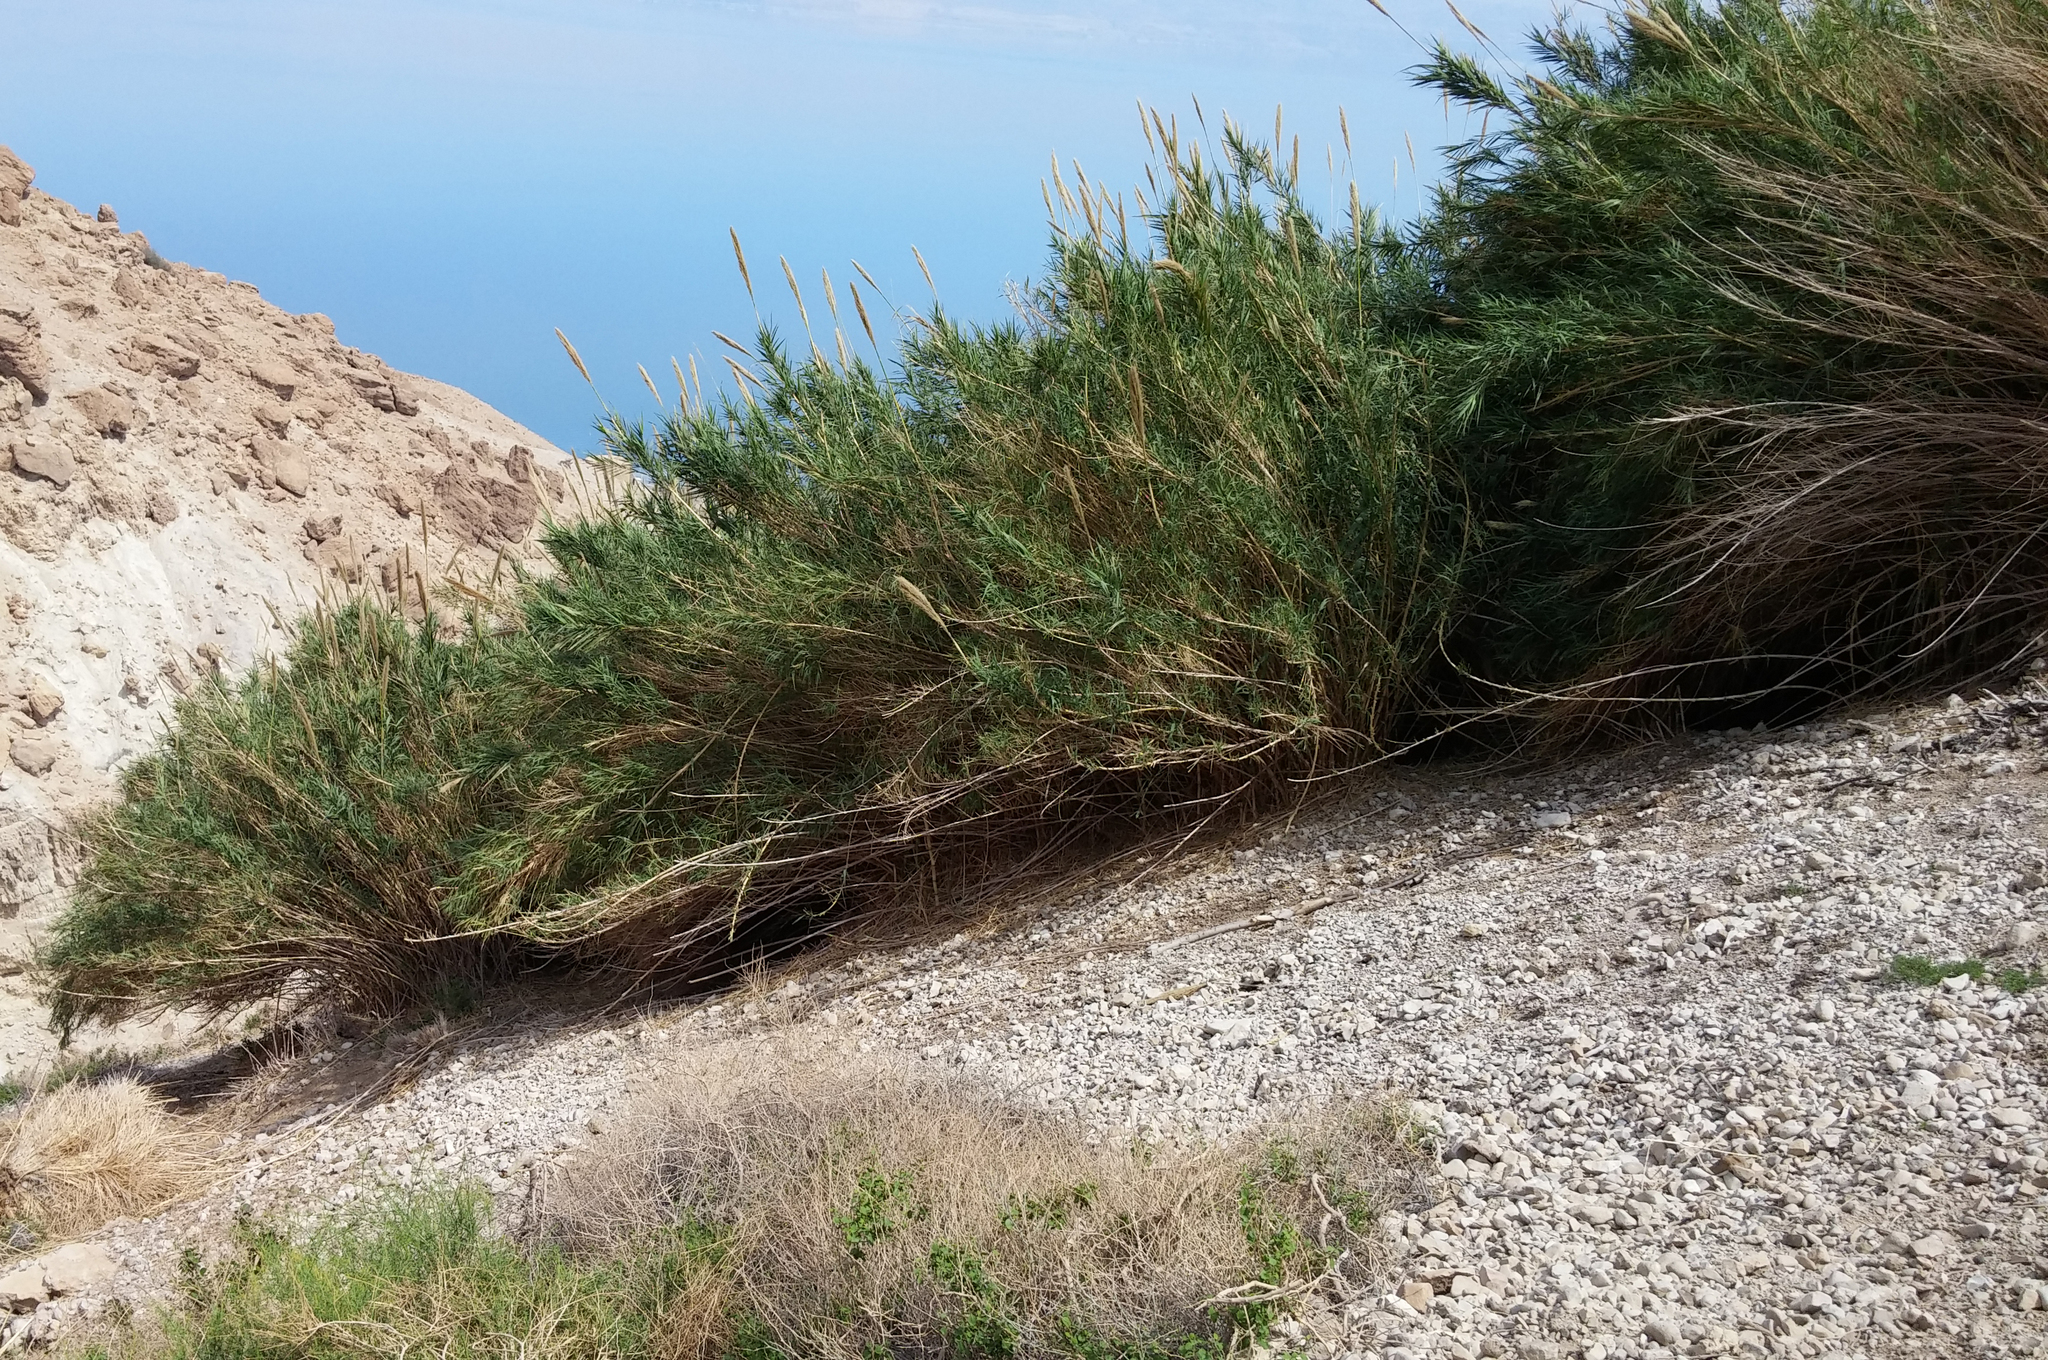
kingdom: Plantae
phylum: Tracheophyta
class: Liliopsida
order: Poales
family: Poaceae
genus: Arundo
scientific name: Arundo donax
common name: Giant reed
